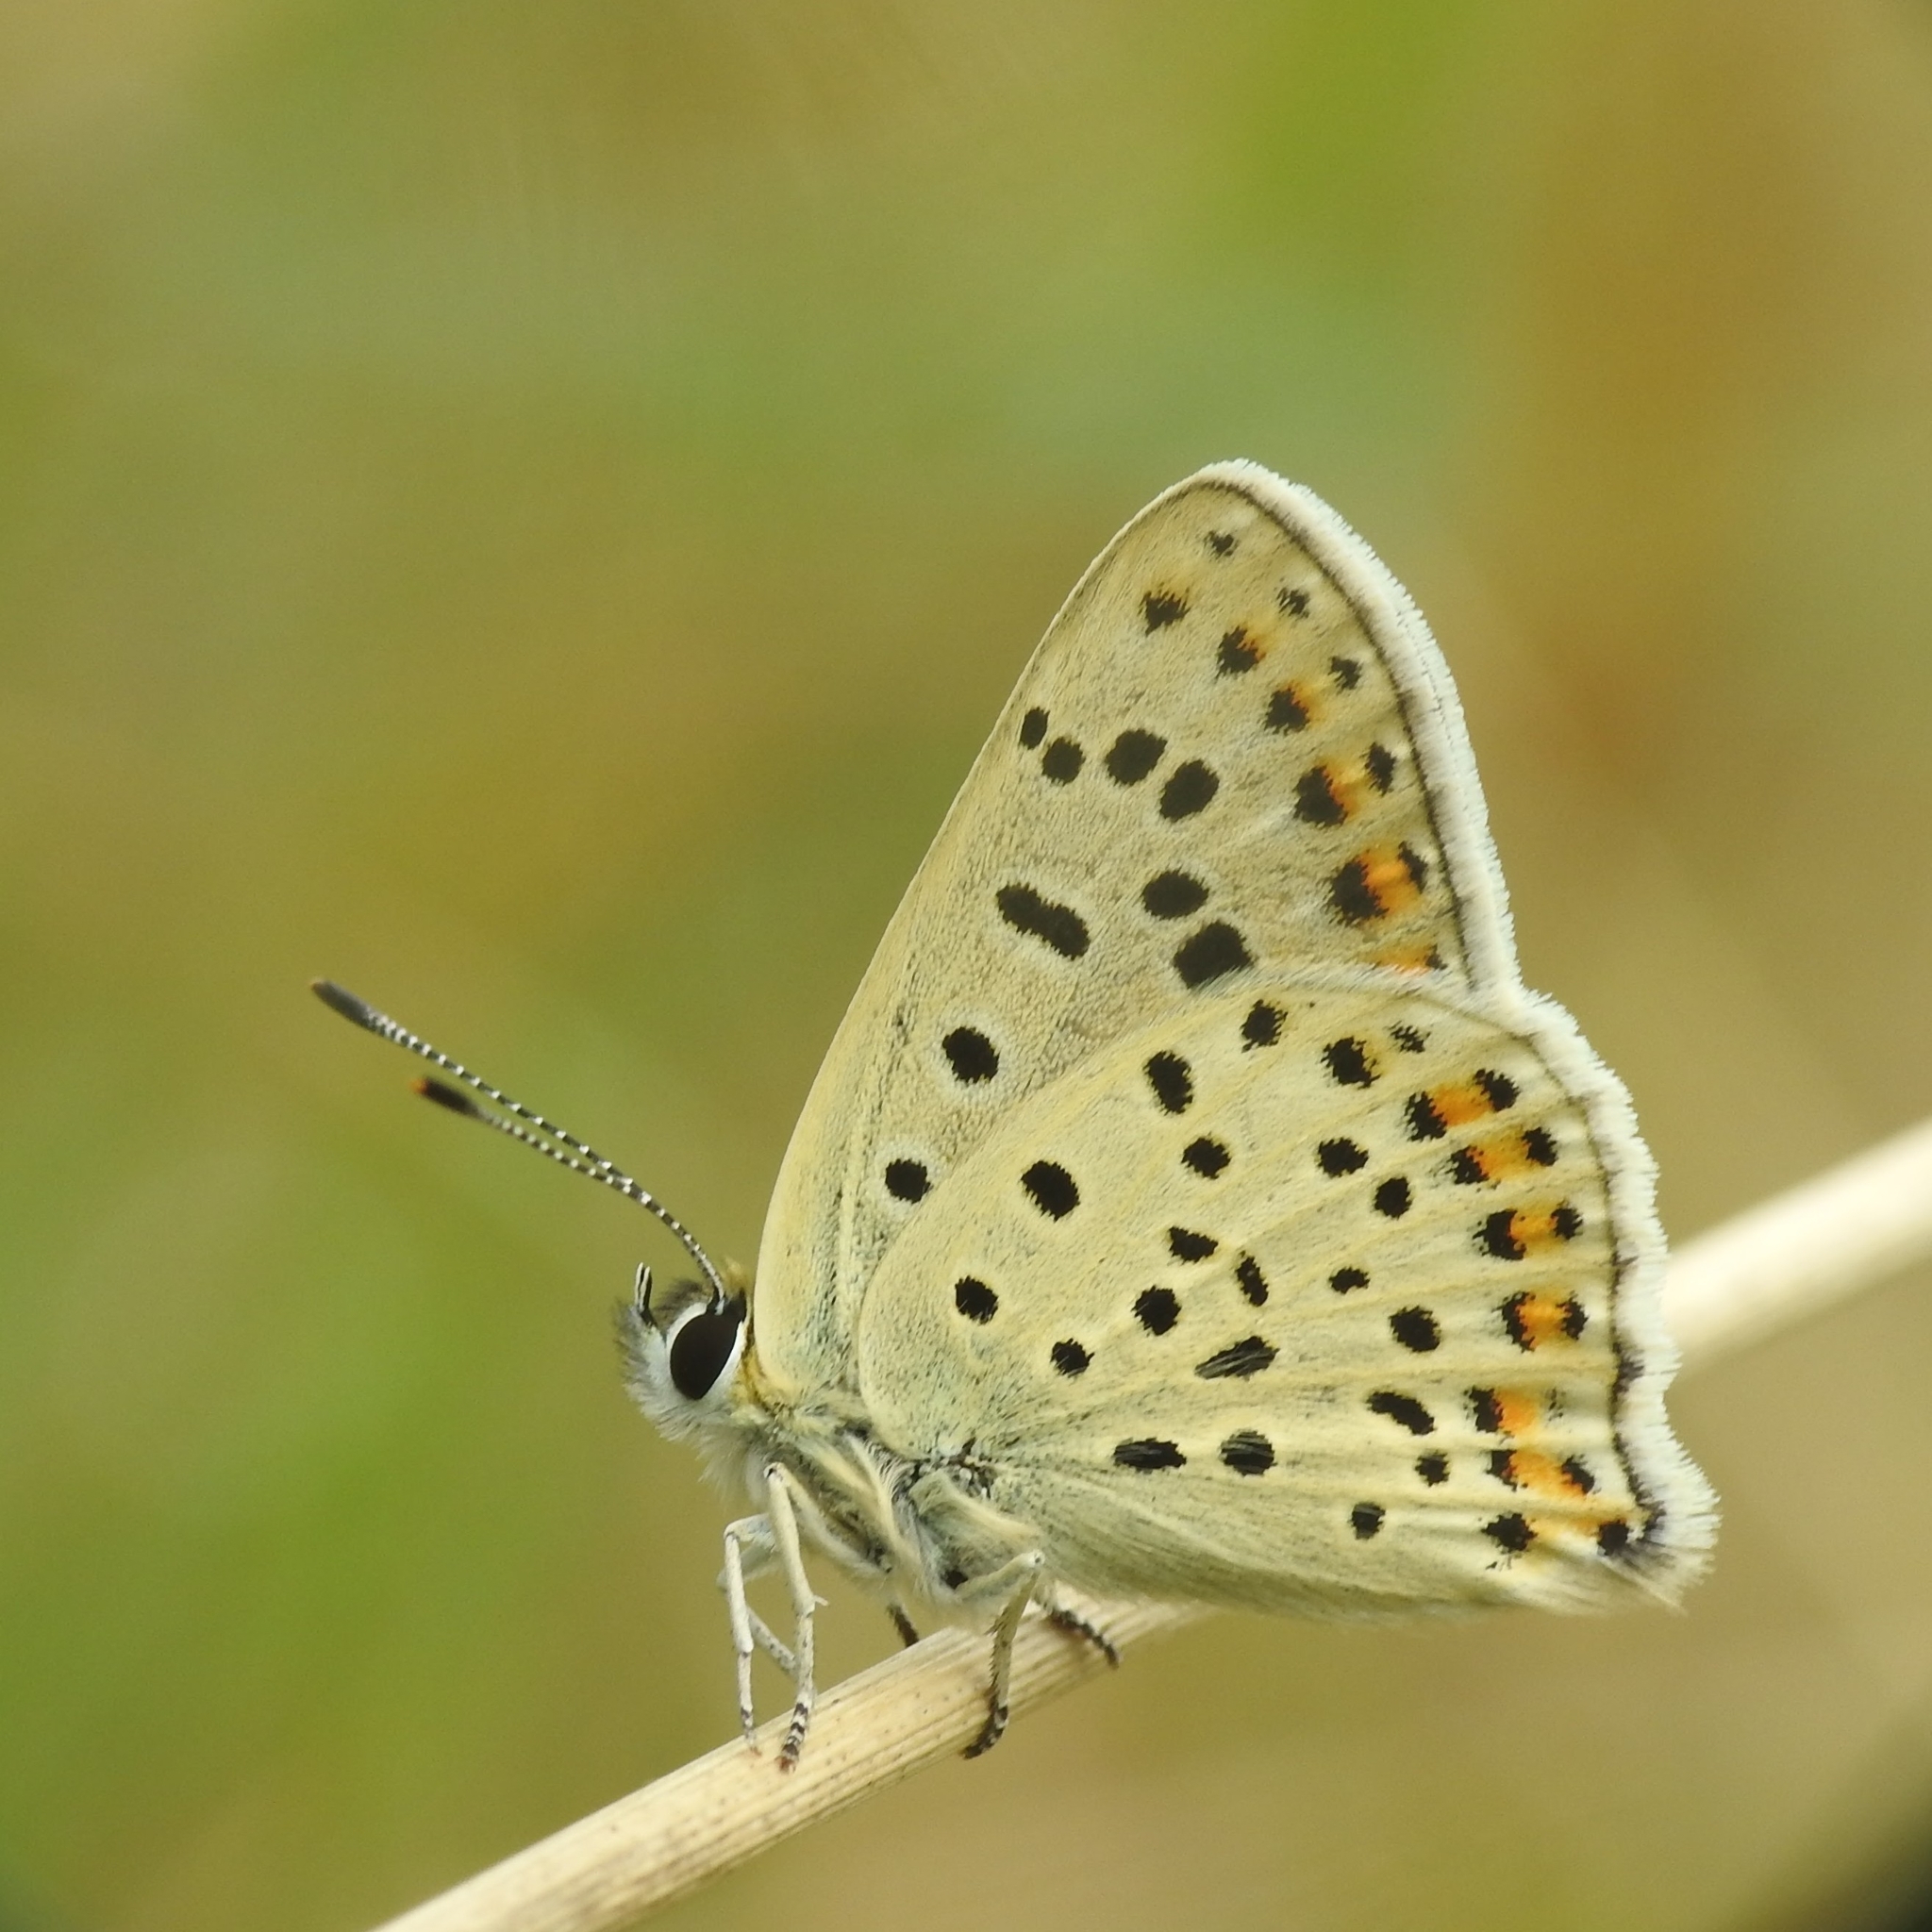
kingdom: Animalia
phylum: Arthropoda
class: Insecta
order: Lepidoptera
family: Lycaenidae
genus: Loweia
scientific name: Loweia tityrus
